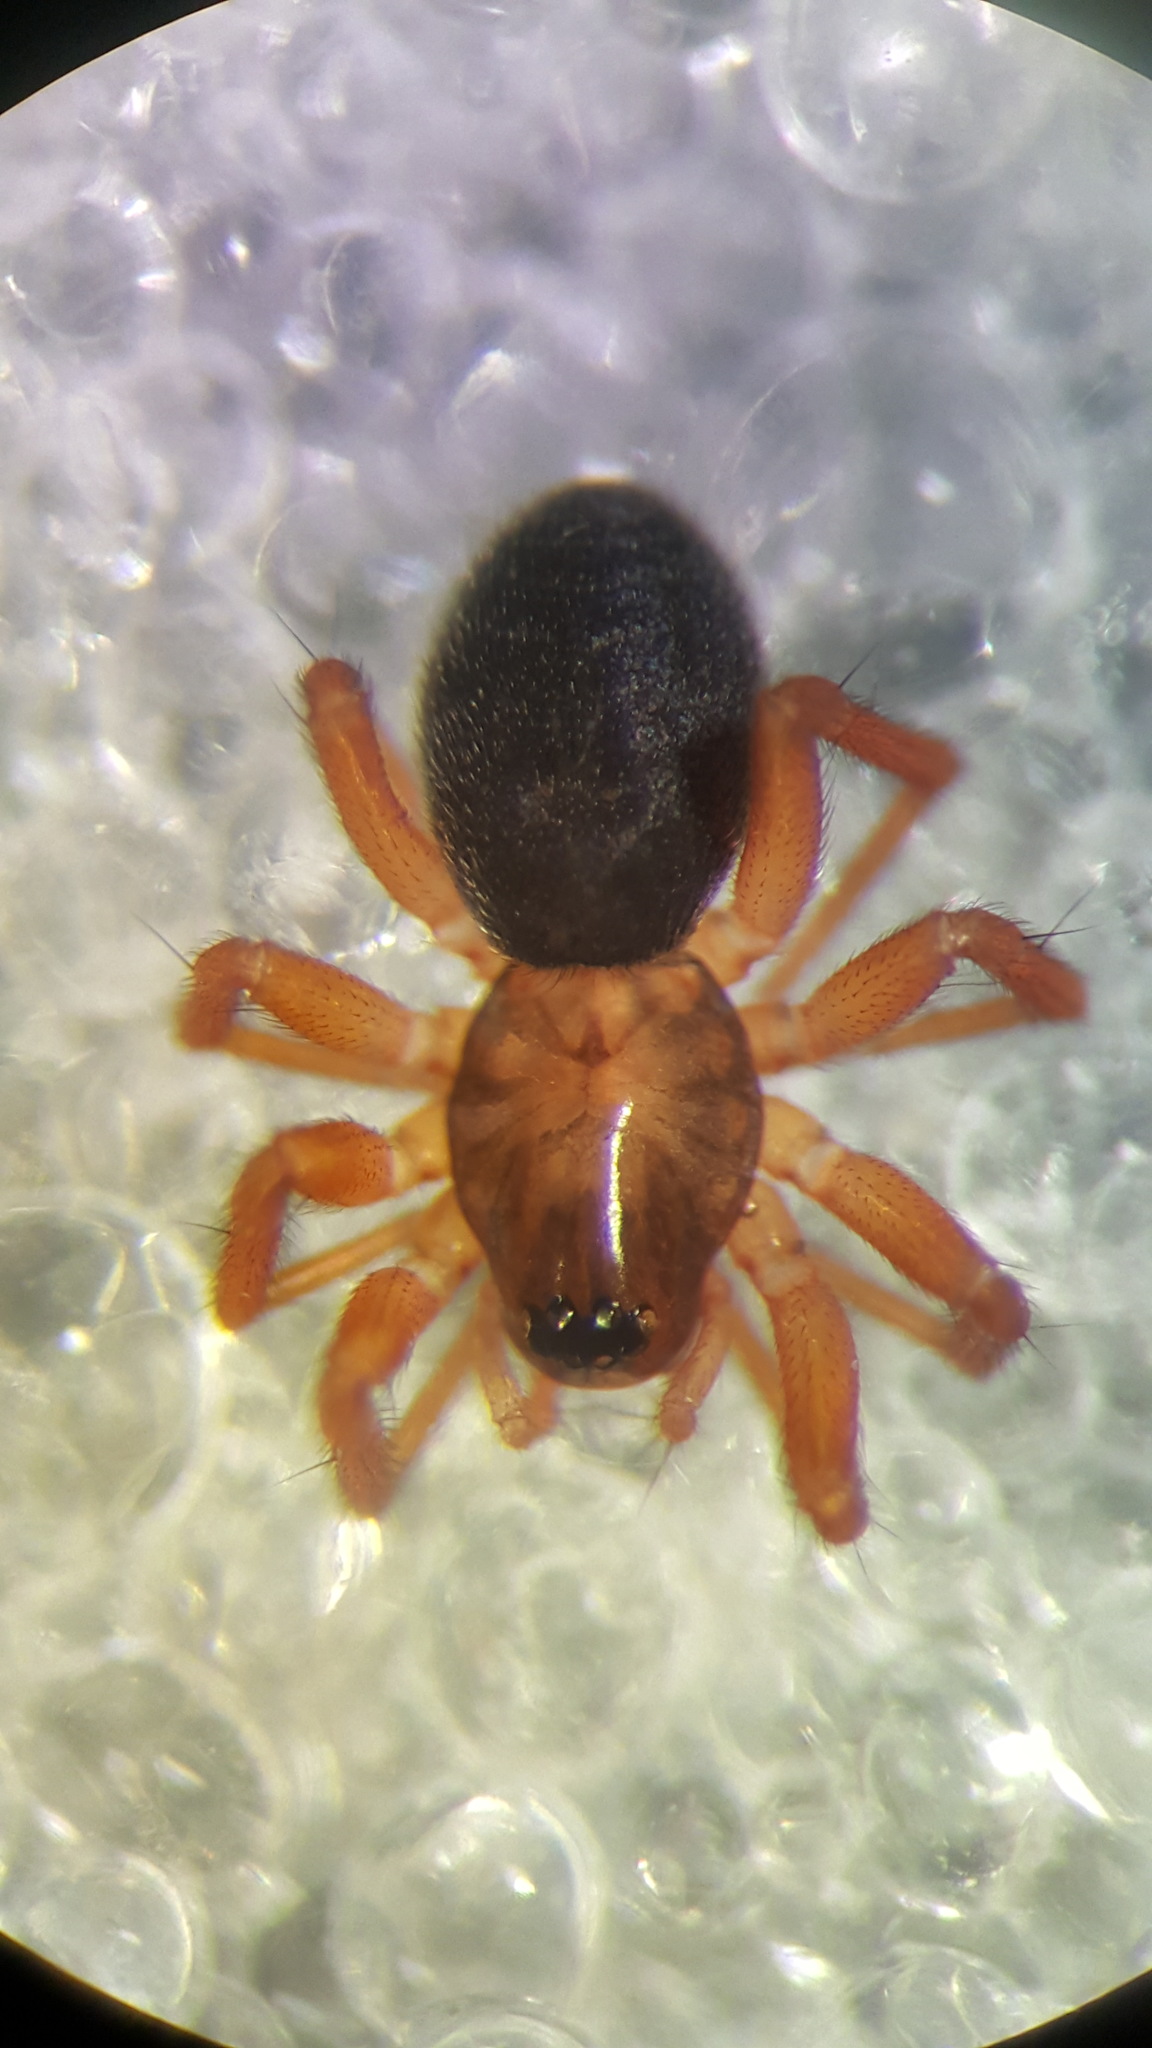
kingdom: Animalia
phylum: Arthropoda
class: Arachnida
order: Araneae
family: Linyphiidae
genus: Oedothorax
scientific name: Oedothorax gibbosus
